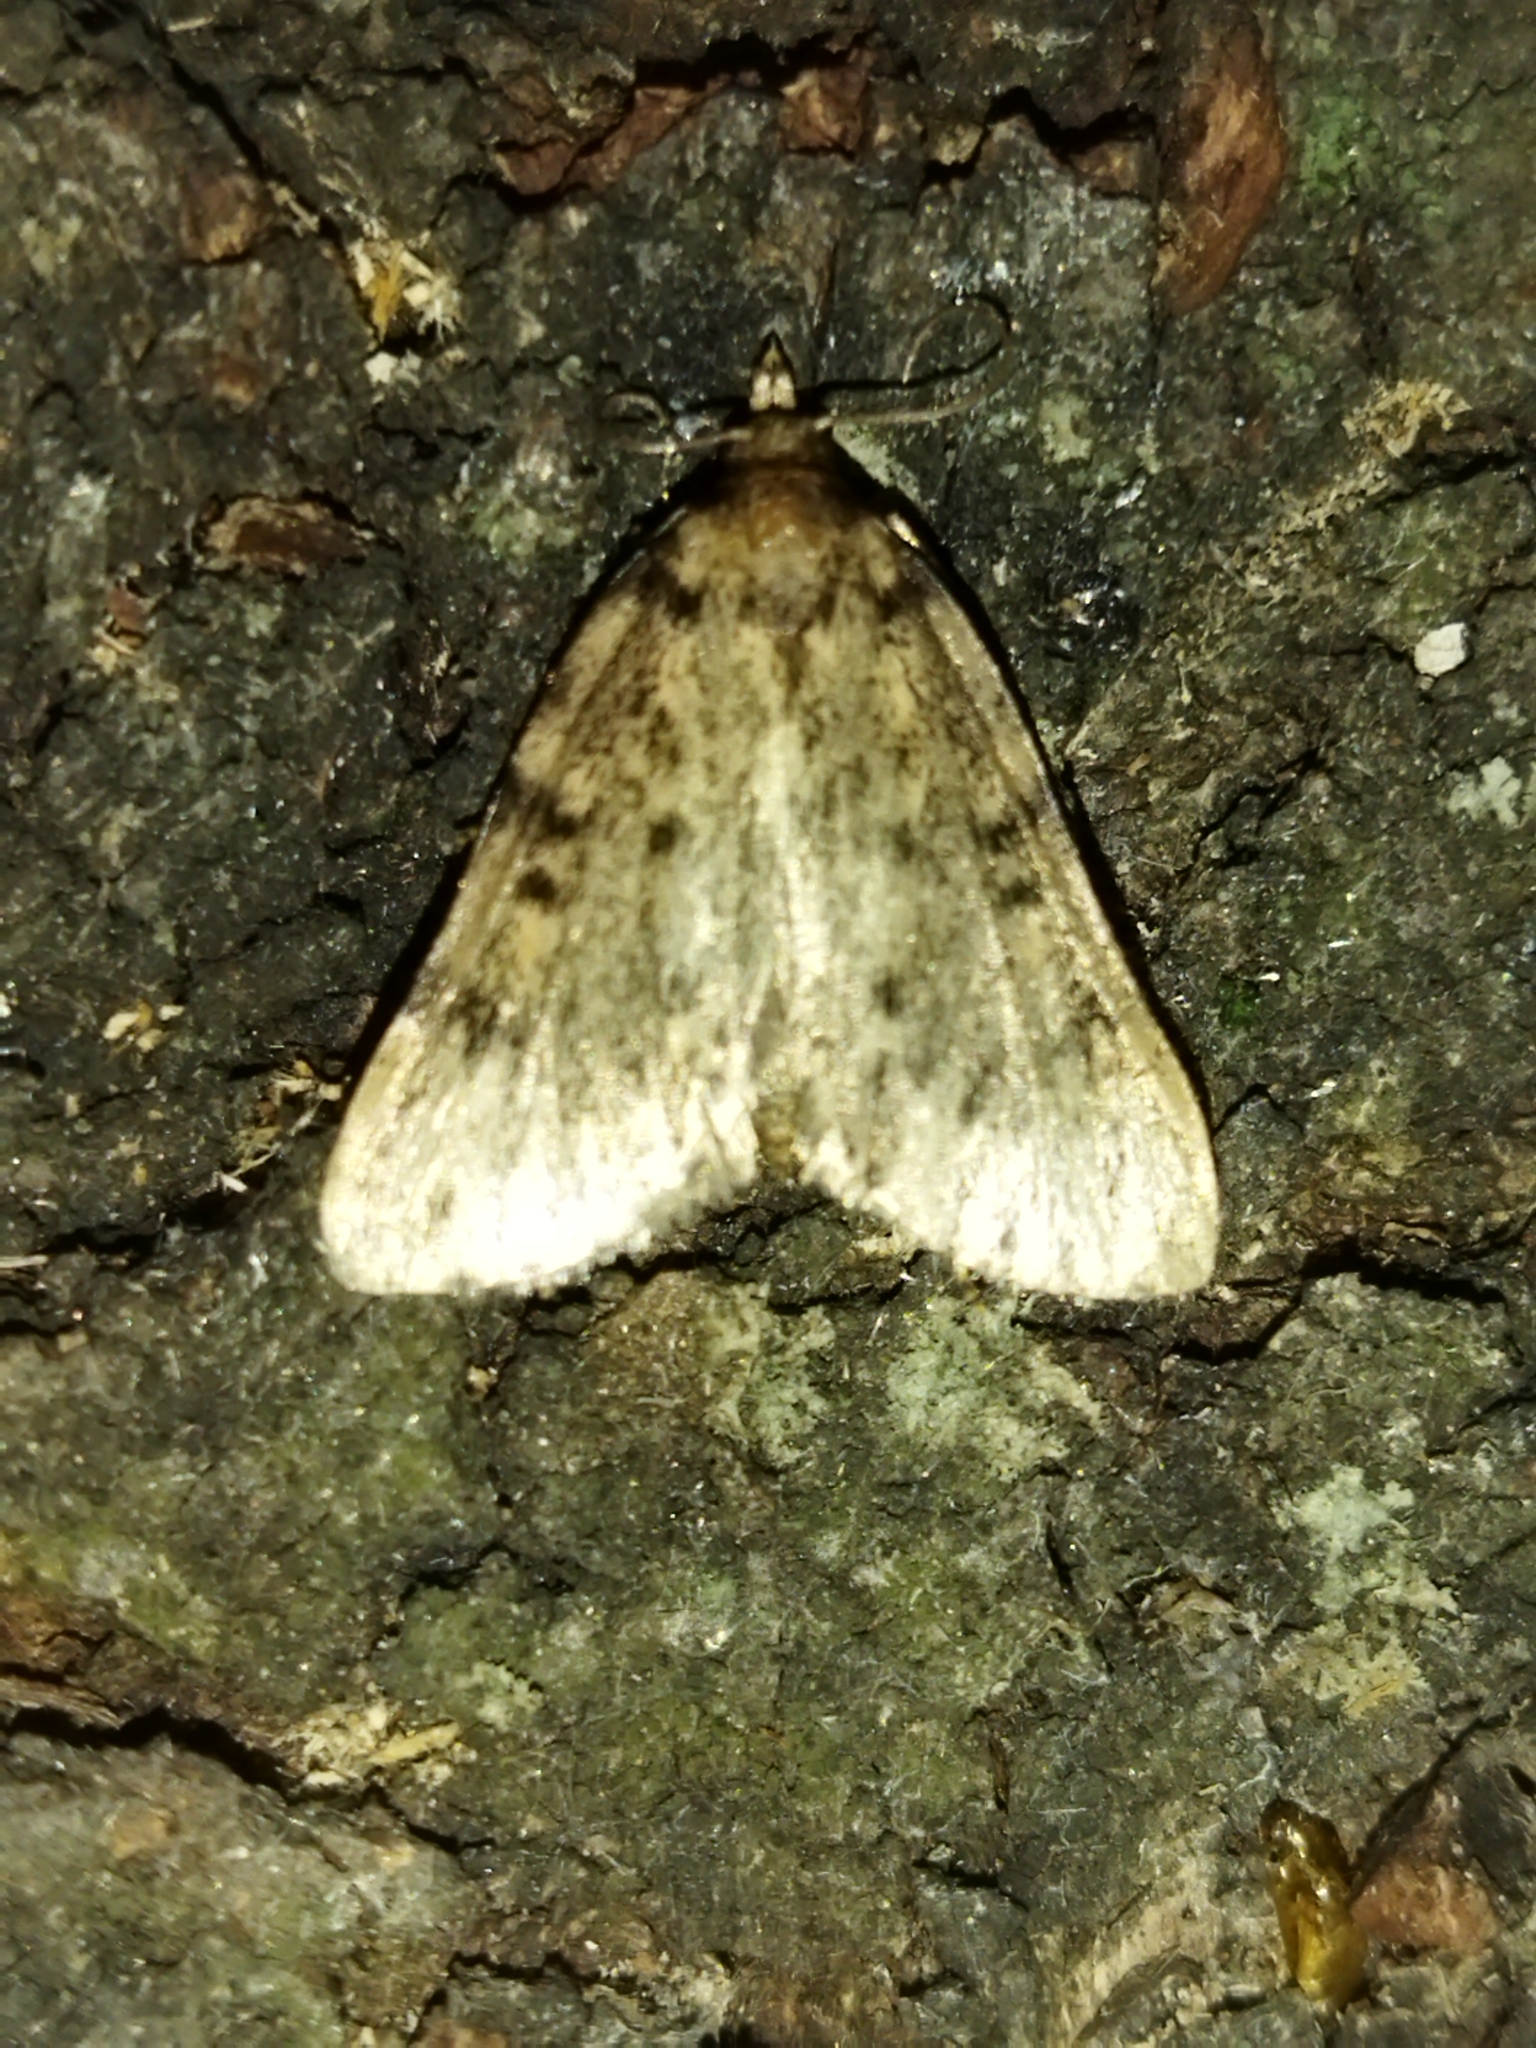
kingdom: Animalia
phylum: Arthropoda
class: Insecta
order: Lepidoptera
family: Pyralidae
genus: Aglossa
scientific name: Aglossa pinguinalis
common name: Large tabby
